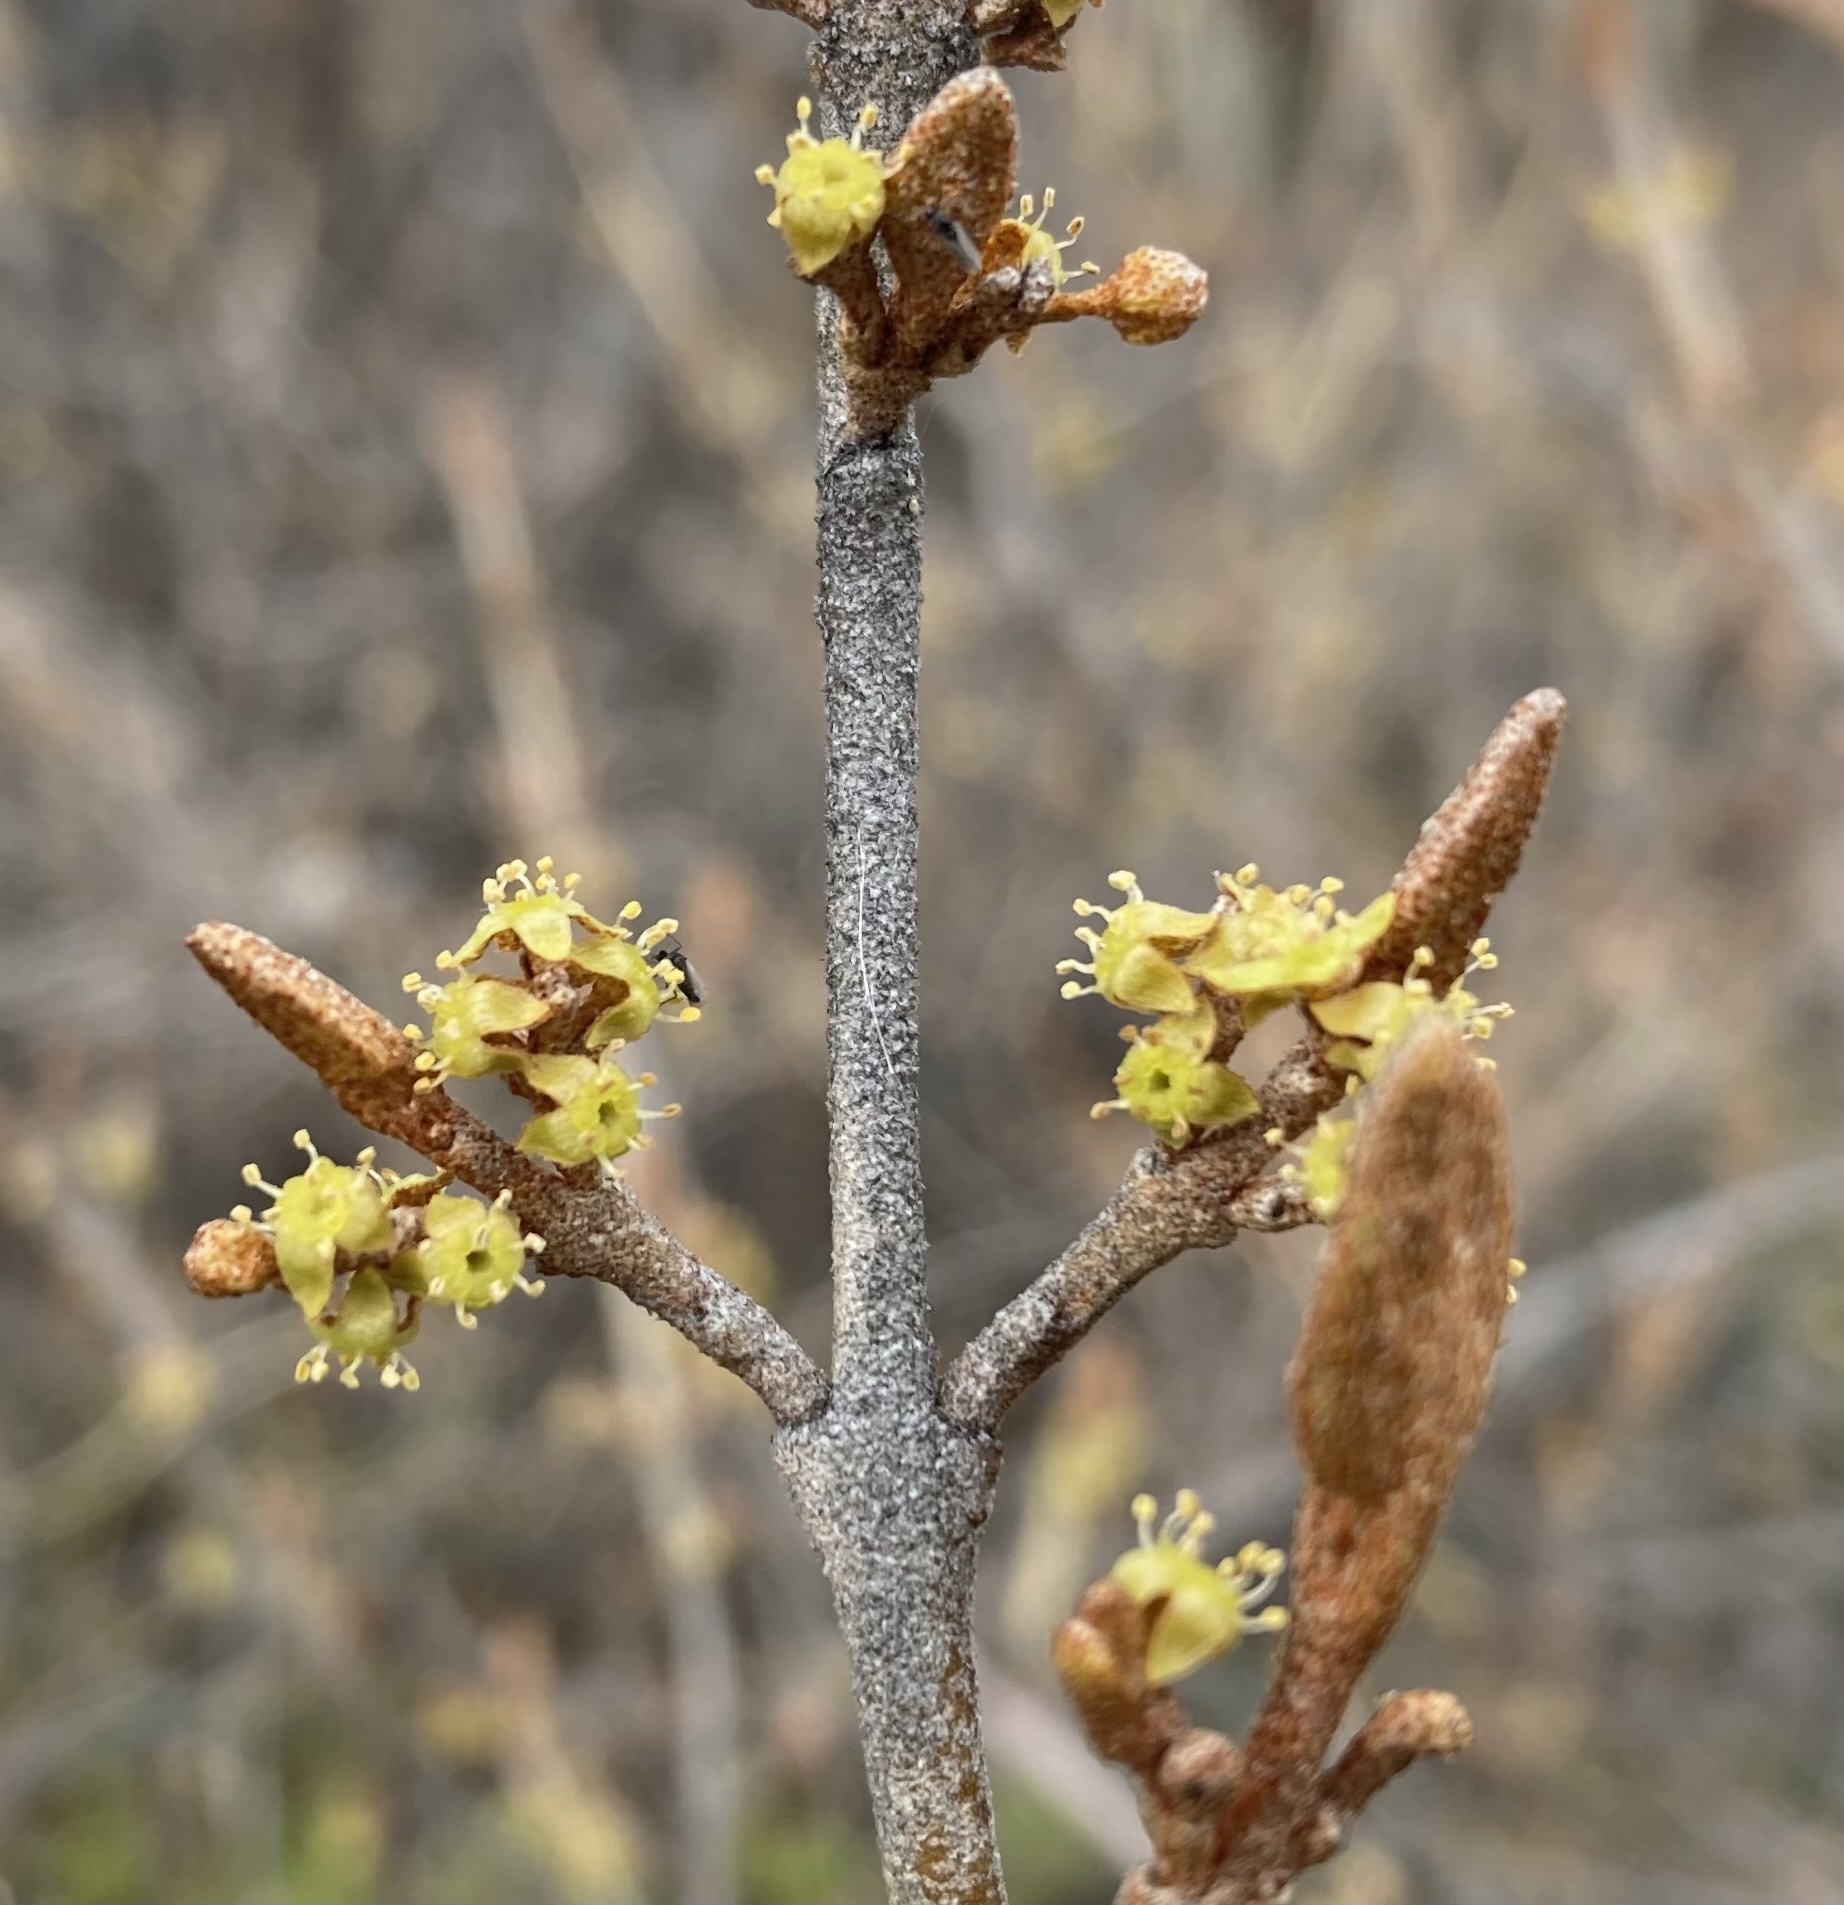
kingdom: Plantae
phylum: Tracheophyta
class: Magnoliopsida
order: Rosales
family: Elaeagnaceae
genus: Shepherdia
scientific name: Shepherdia canadensis
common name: Soapberry
